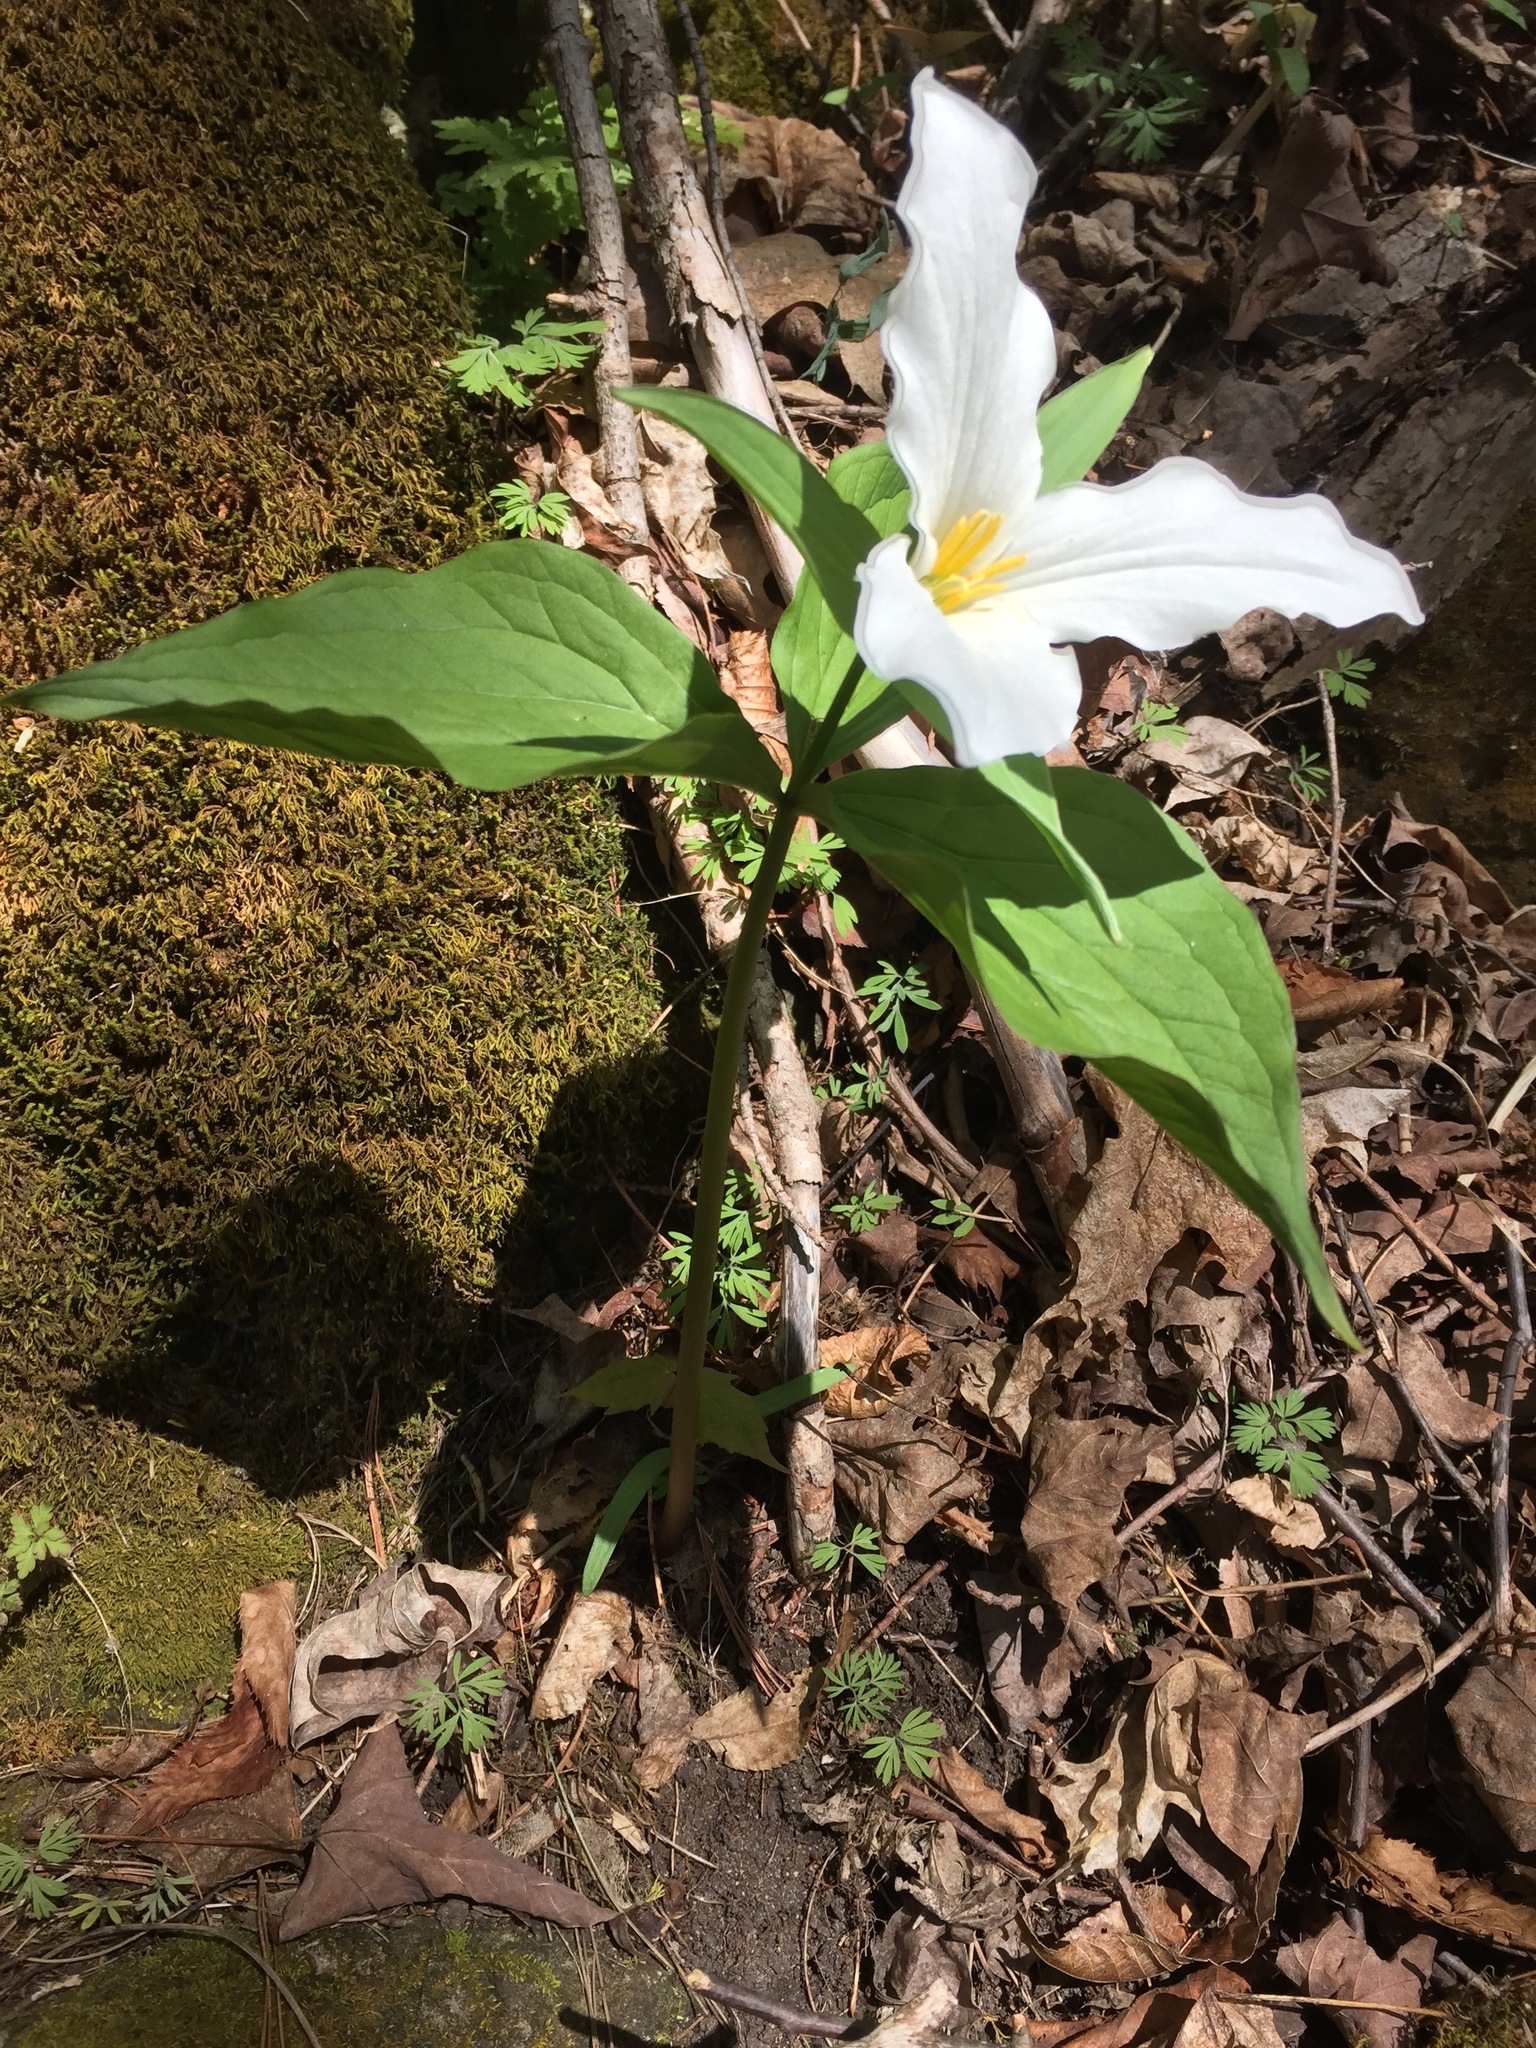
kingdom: Plantae
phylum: Tracheophyta
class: Liliopsida
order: Liliales
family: Melanthiaceae
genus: Trillium
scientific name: Trillium grandiflorum
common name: Great white trillium
